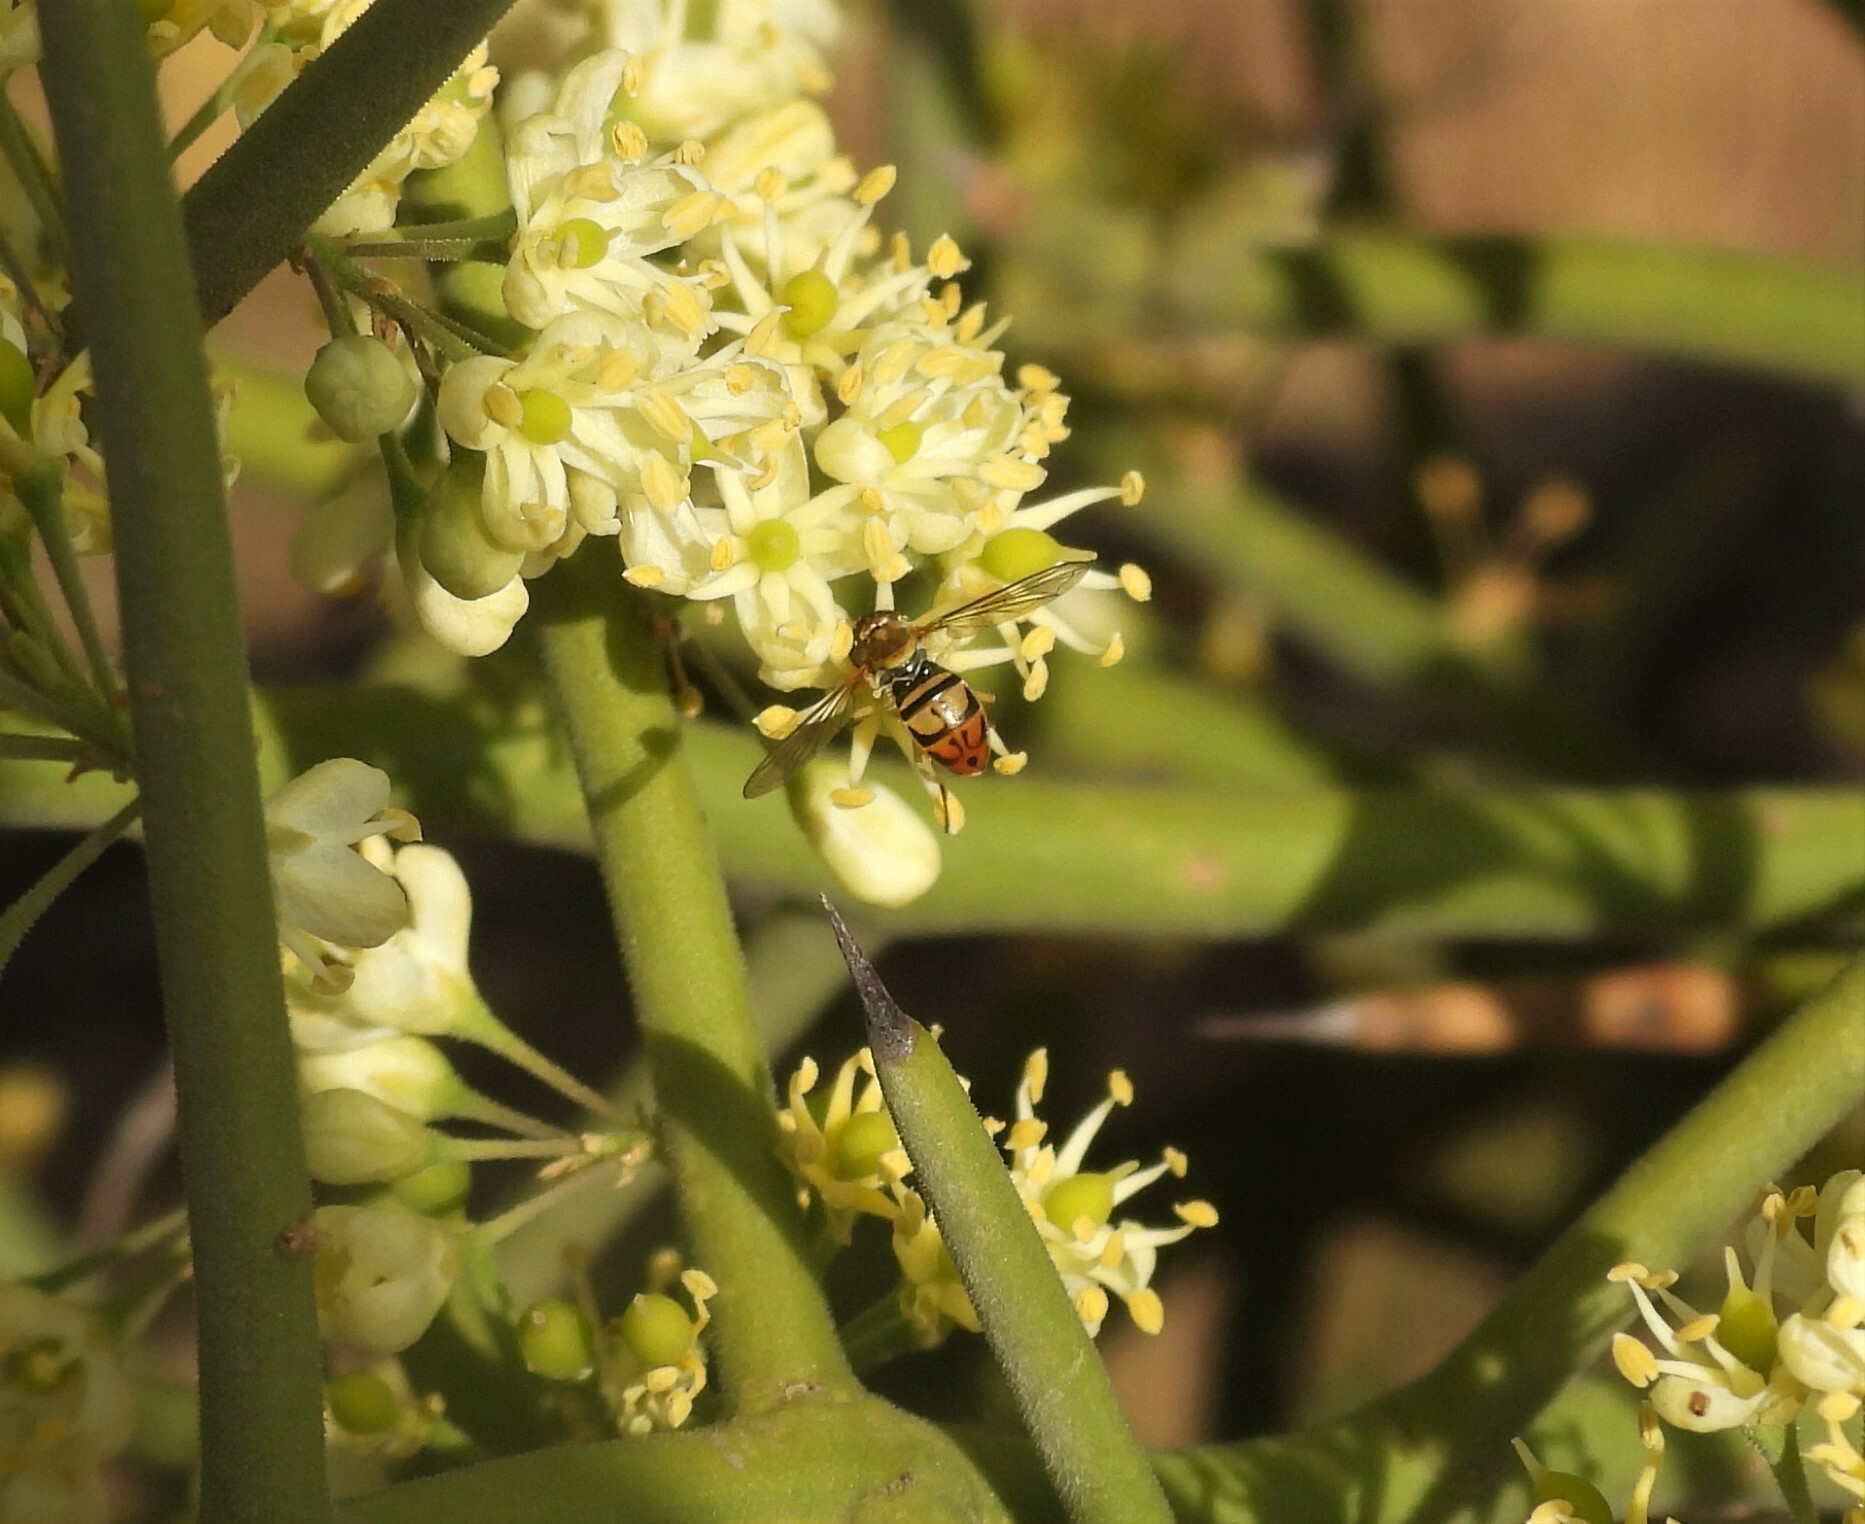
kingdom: Animalia
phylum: Arthropoda
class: Insecta
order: Diptera
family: Syrphidae
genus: Toxomerus
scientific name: Toxomerus marginatus
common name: Syrphid fly
